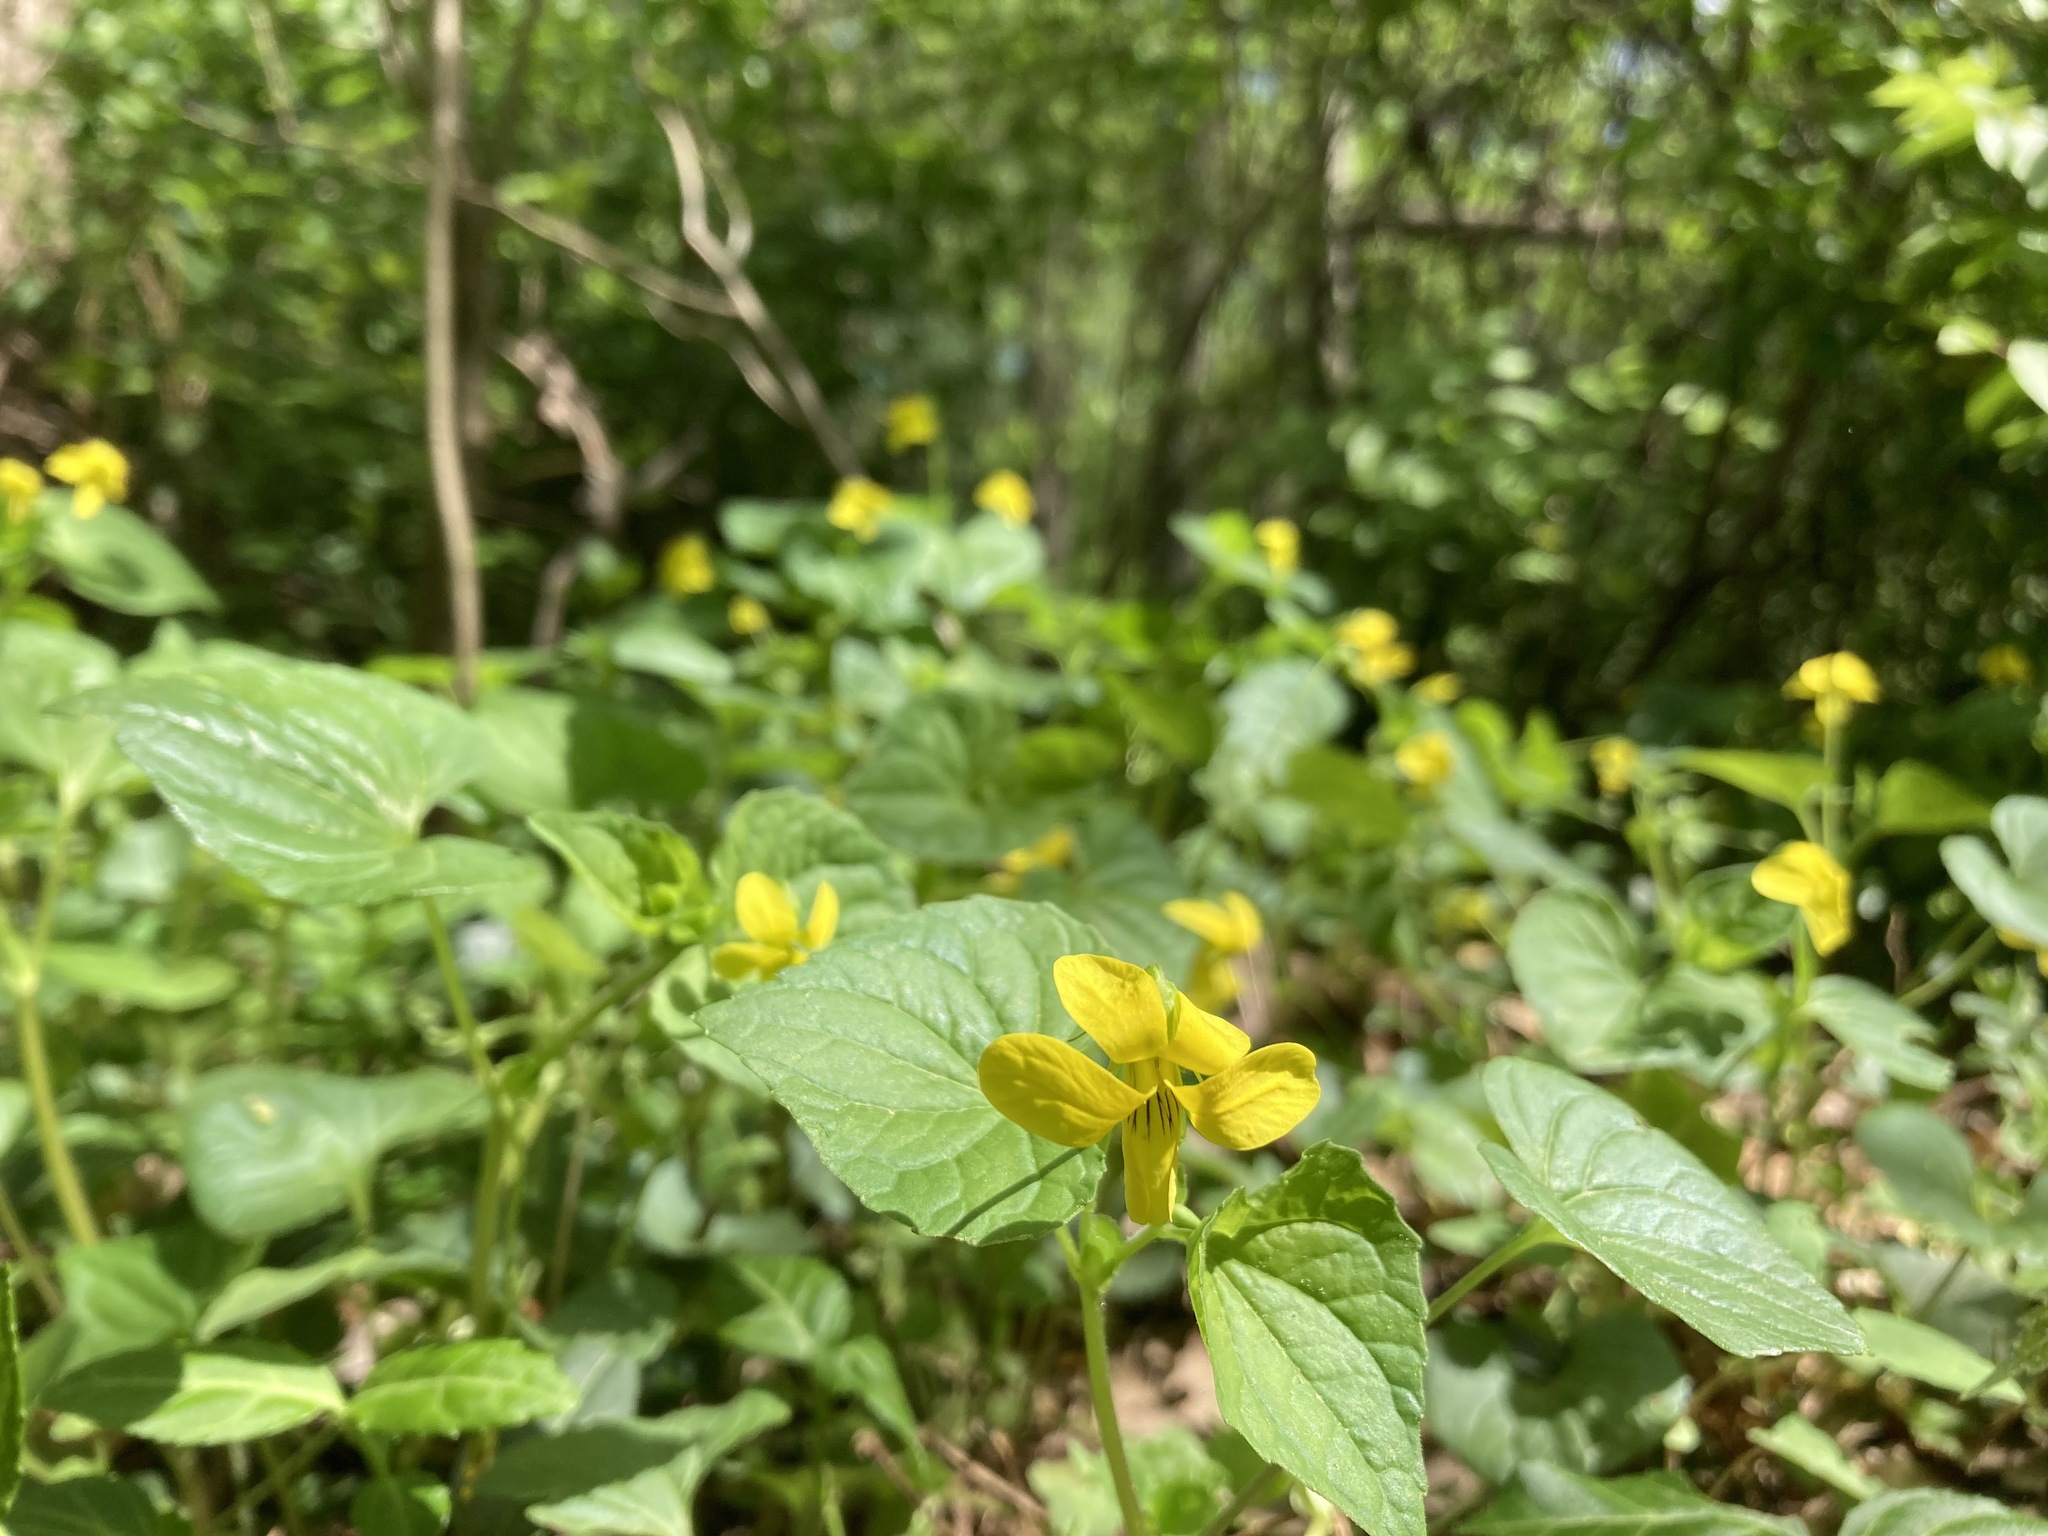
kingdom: Plantae
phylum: Tracheophyta
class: Magnoliopsida
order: Malpighiales
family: Violaceae
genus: Viola
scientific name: Viola eriocarpa
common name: Smooth yellow violet
